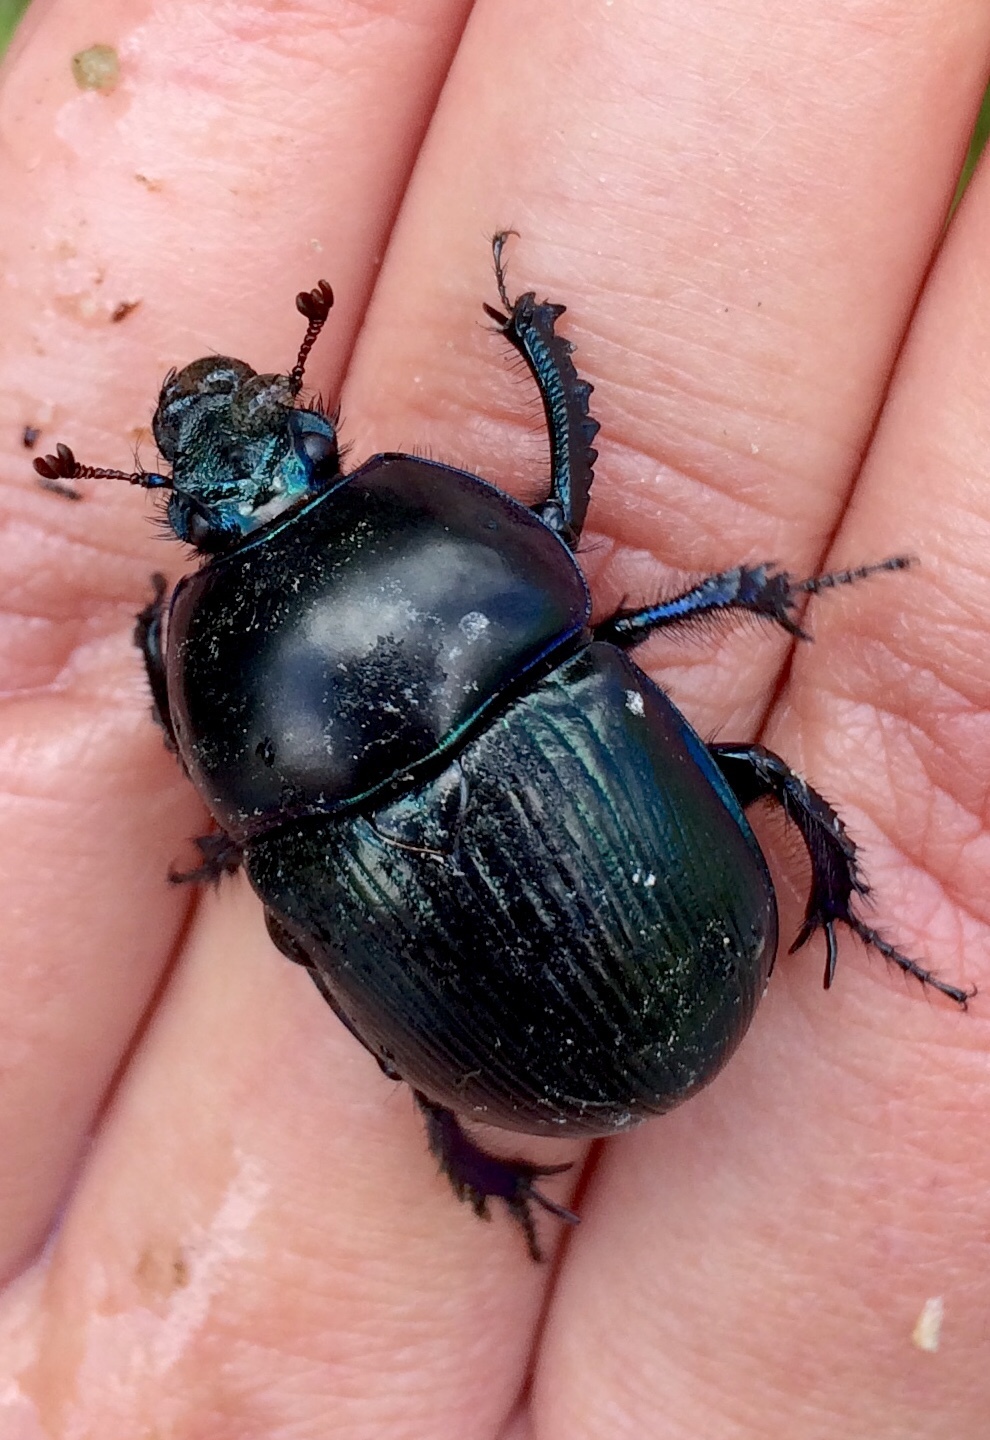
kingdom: Animalia
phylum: Arthropoda
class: Insecta
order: Coleoptera
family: Geotrupidae
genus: Anoplotrupes
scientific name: Anoplotrupes stercorosus
